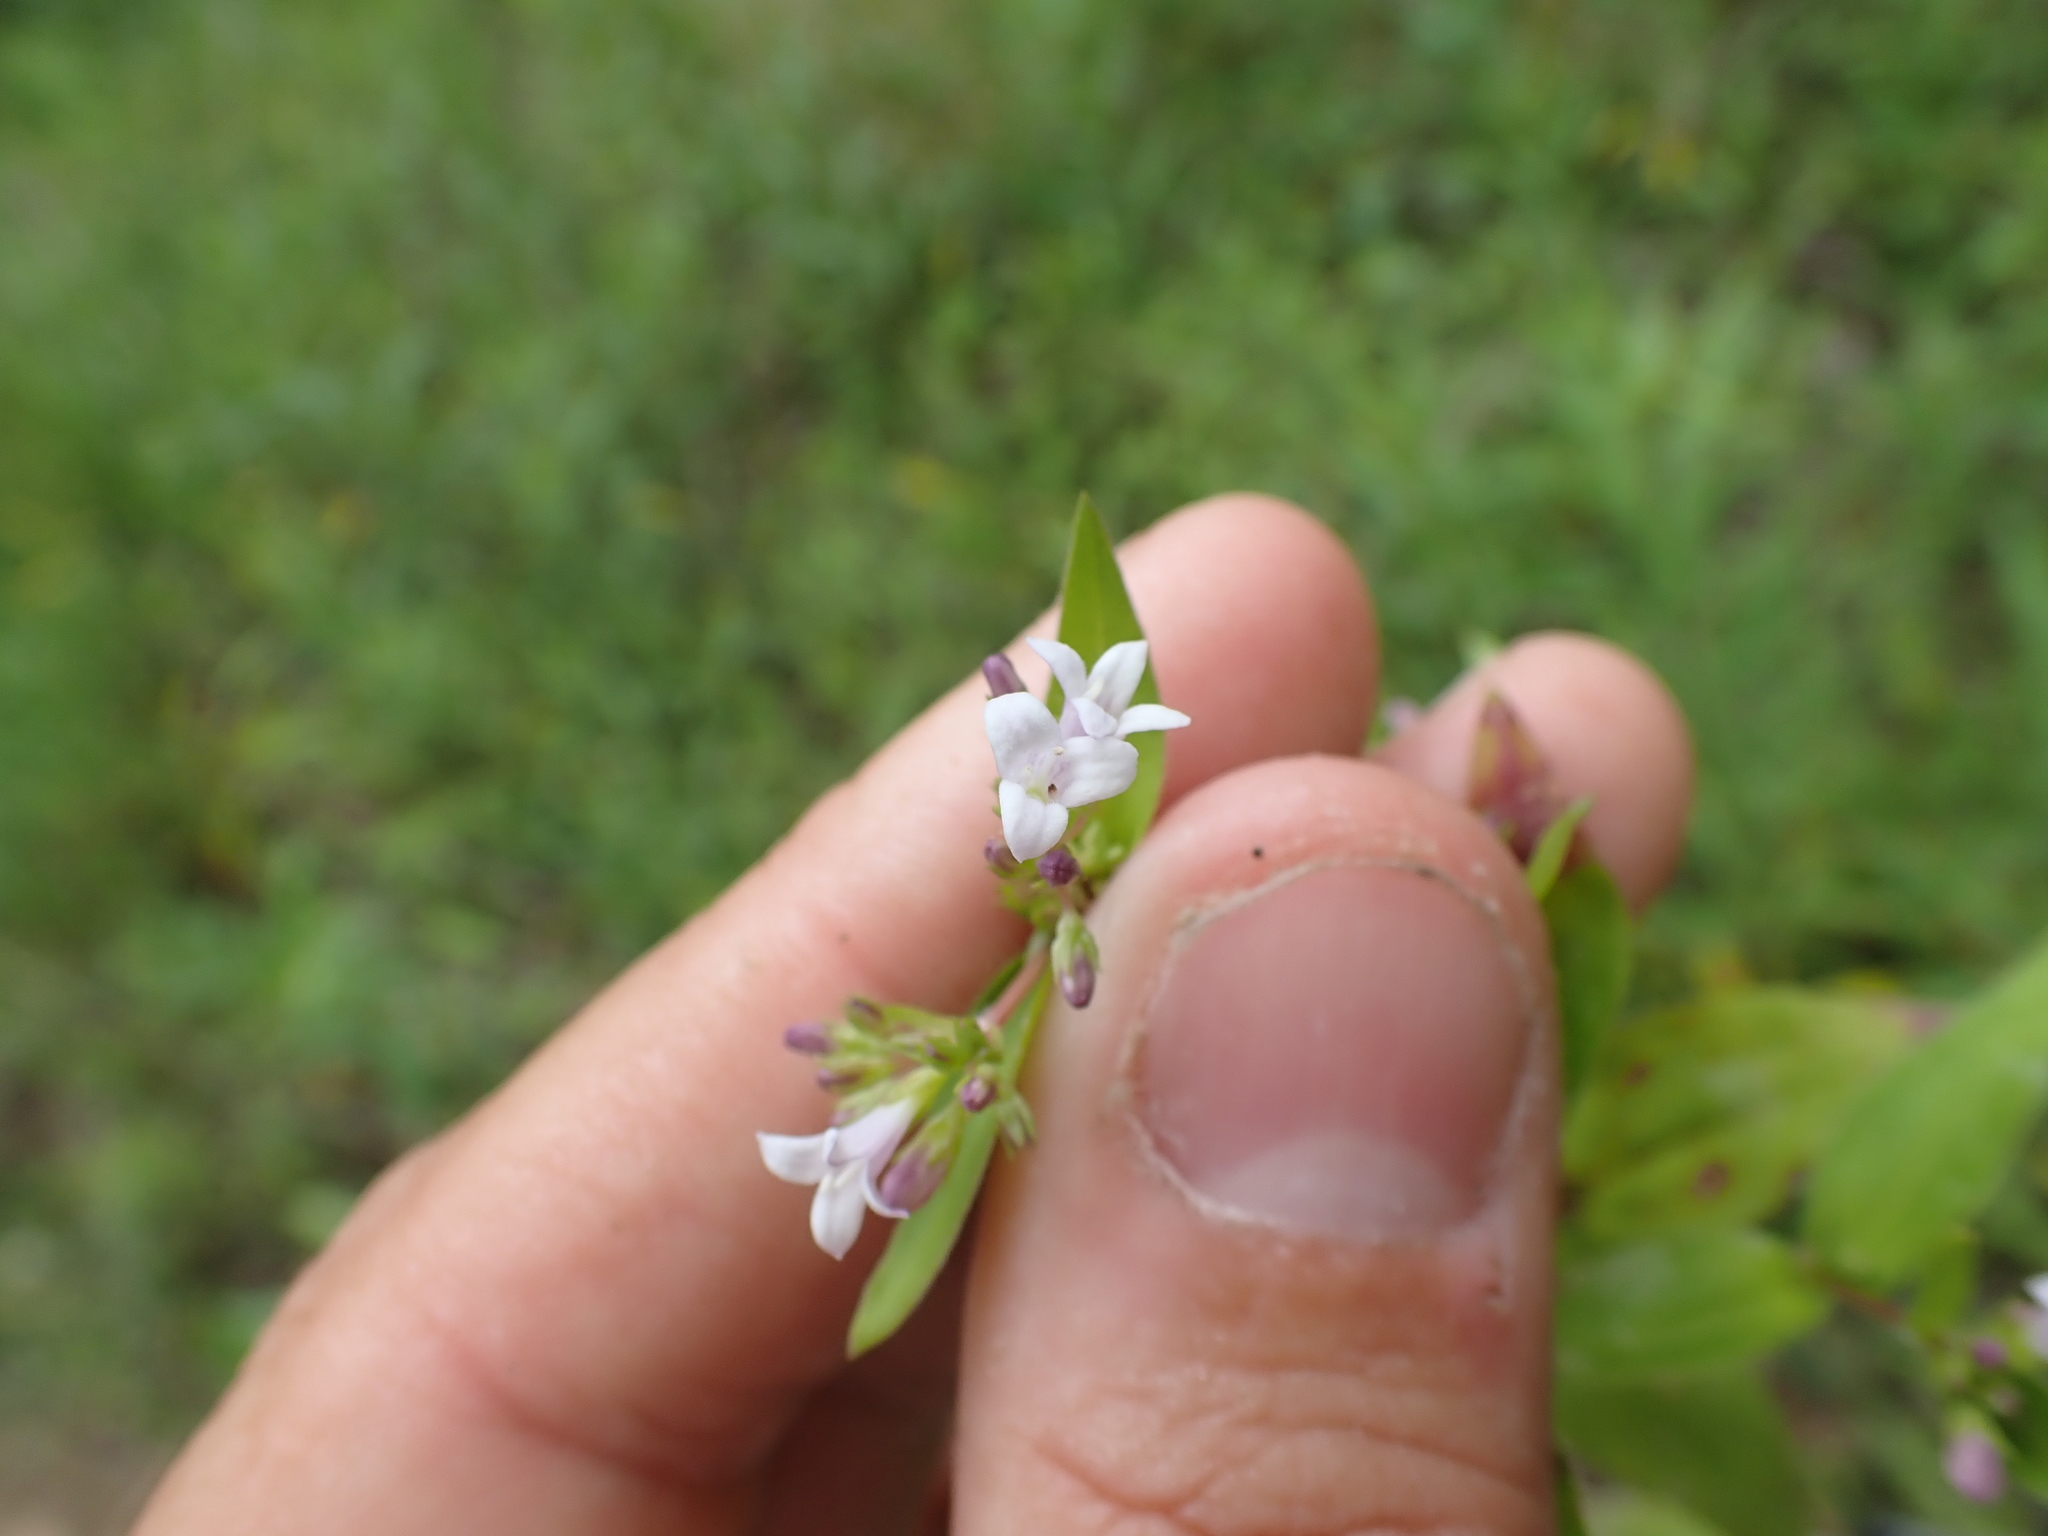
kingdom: Plantae
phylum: Tracheophyta
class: Magnoliopsida
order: Gentianales
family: Rubiaceae
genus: Houstonia
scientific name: Houstonia purpurea
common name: Summer bluet
